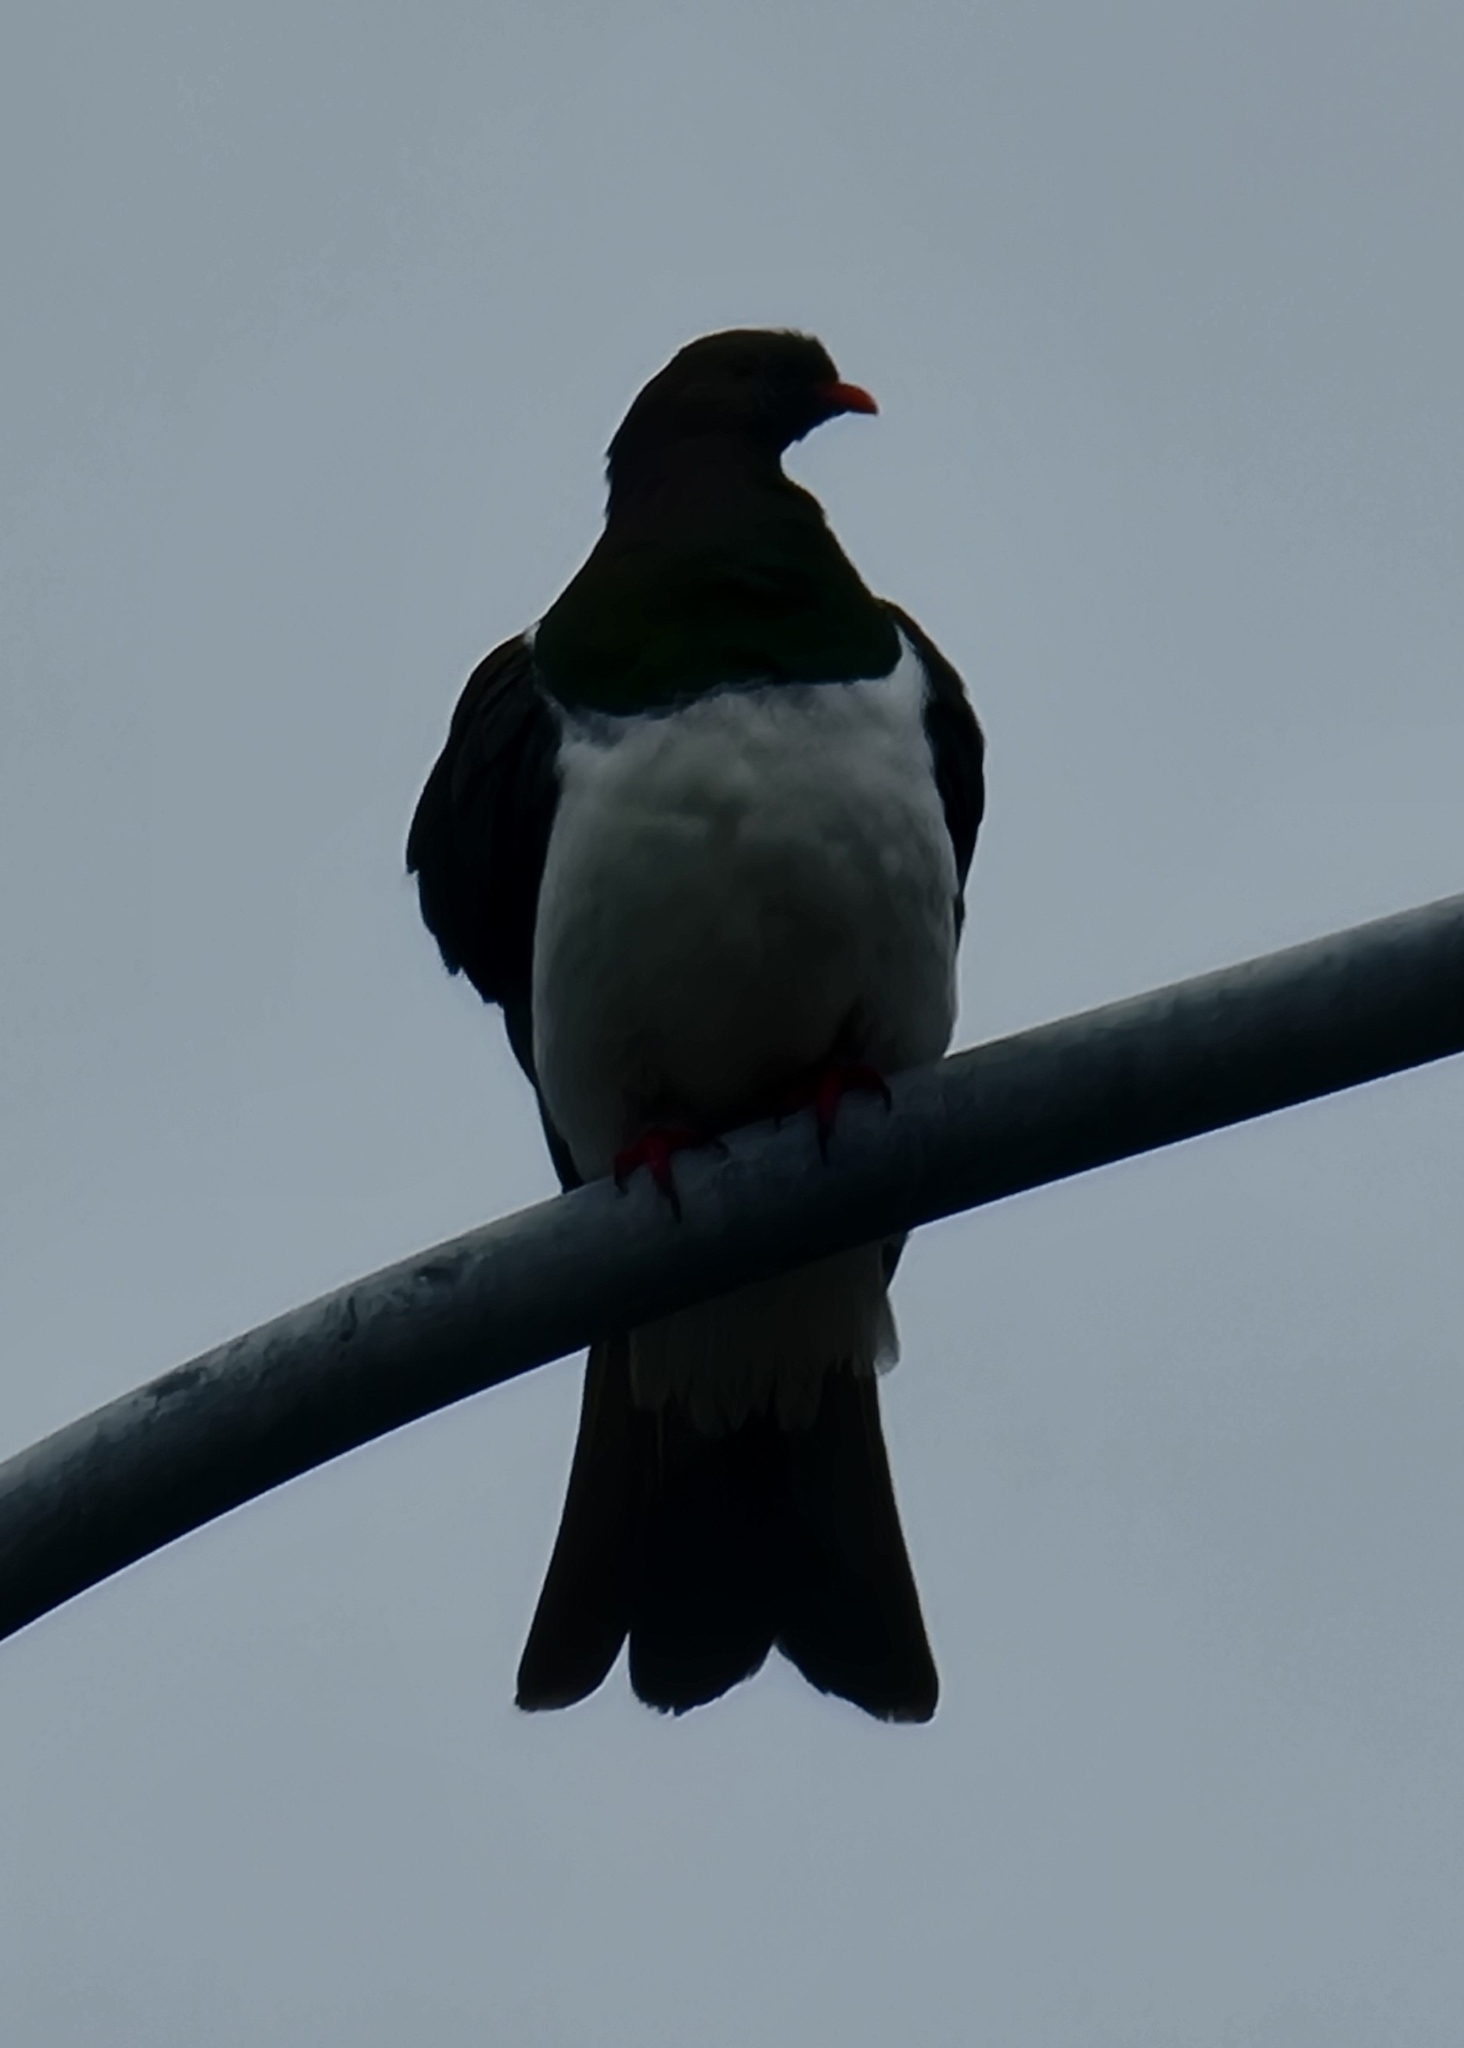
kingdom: Animalia
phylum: Chordata
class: Aves
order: Columbiformes
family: Columbidae
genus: Hemiphaga
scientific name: Hemiphaga novaeseelandiae
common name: New zealand pigeon
